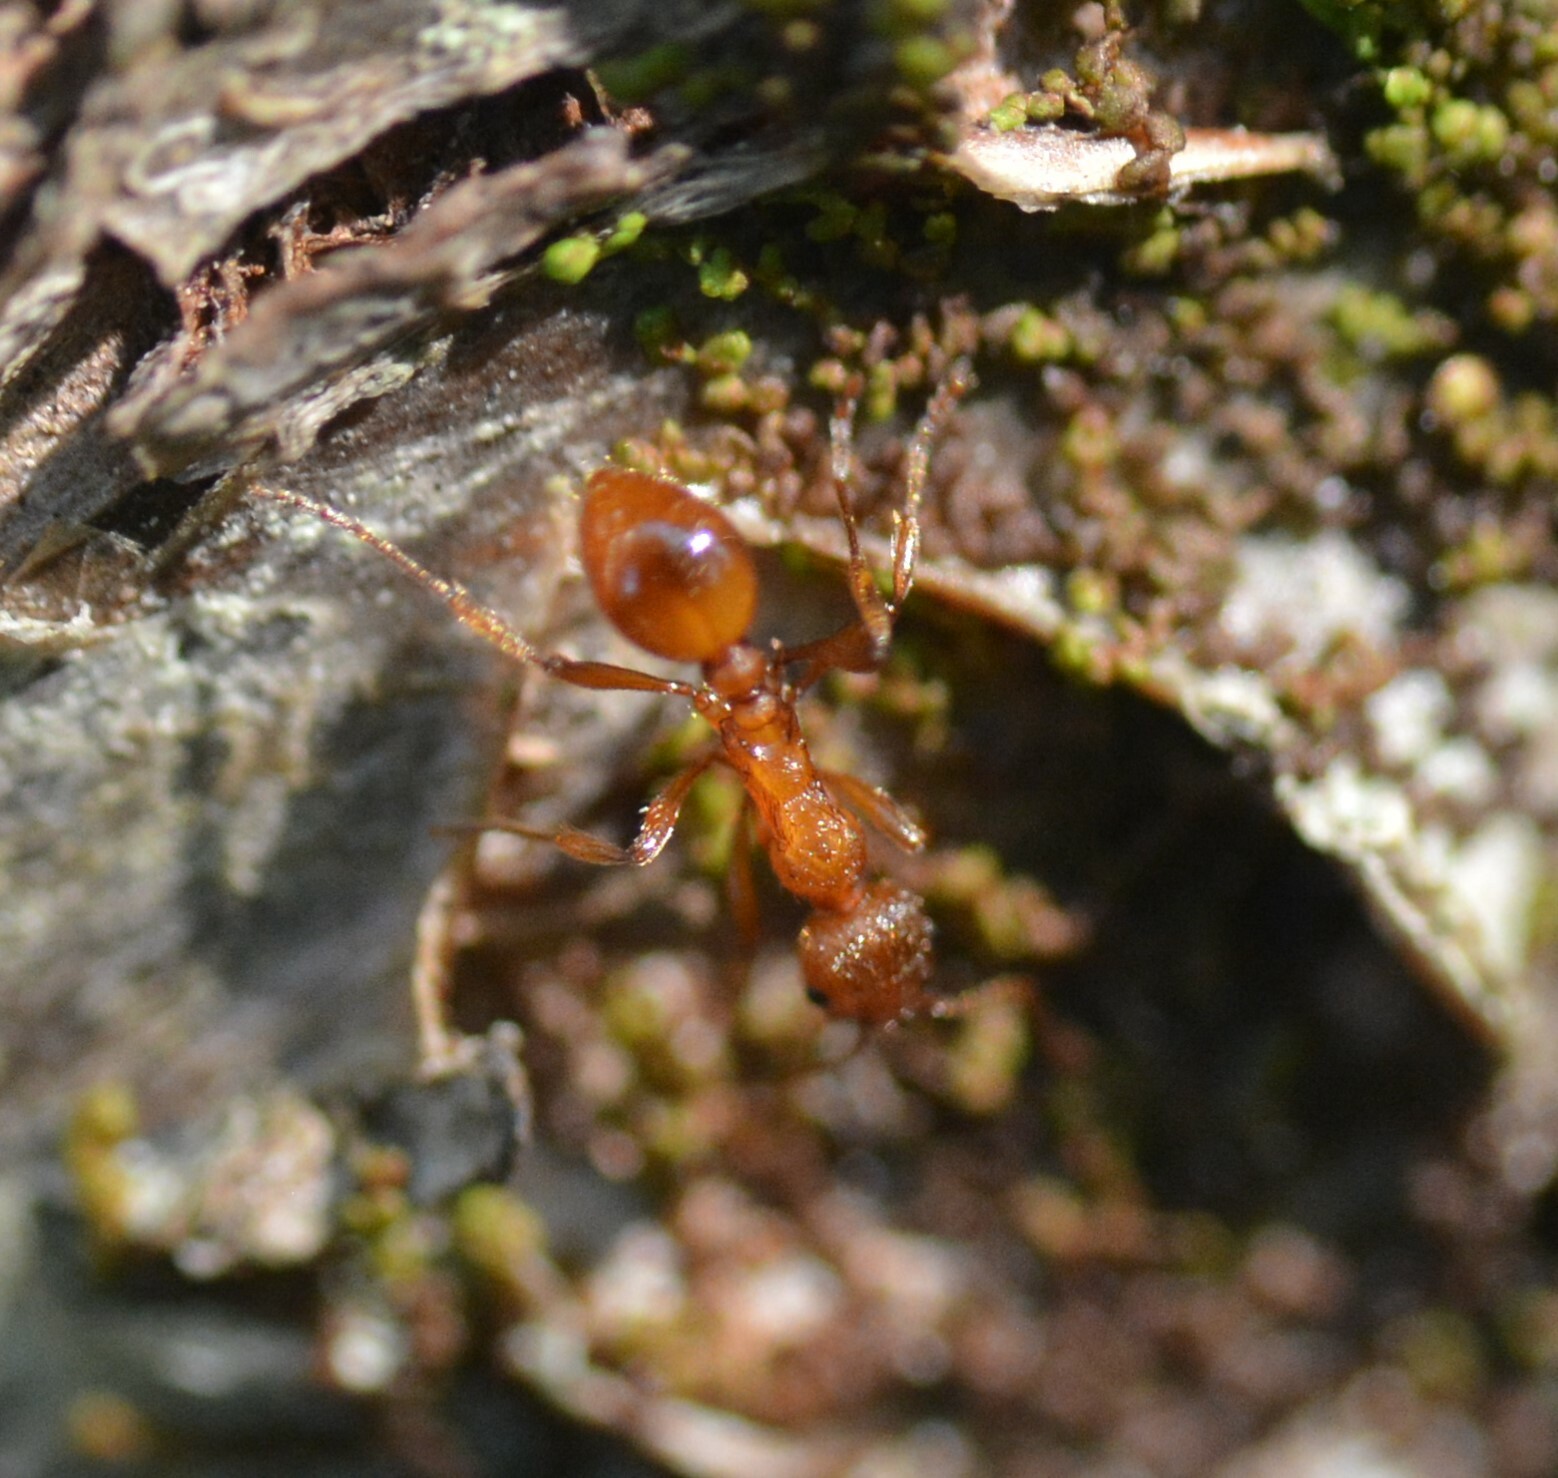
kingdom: Animalia
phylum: Arthropoda
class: Insecta
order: Hymenoptera
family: Formicidae
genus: Myrmica
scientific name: Myrmica rubra
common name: European fire ant
